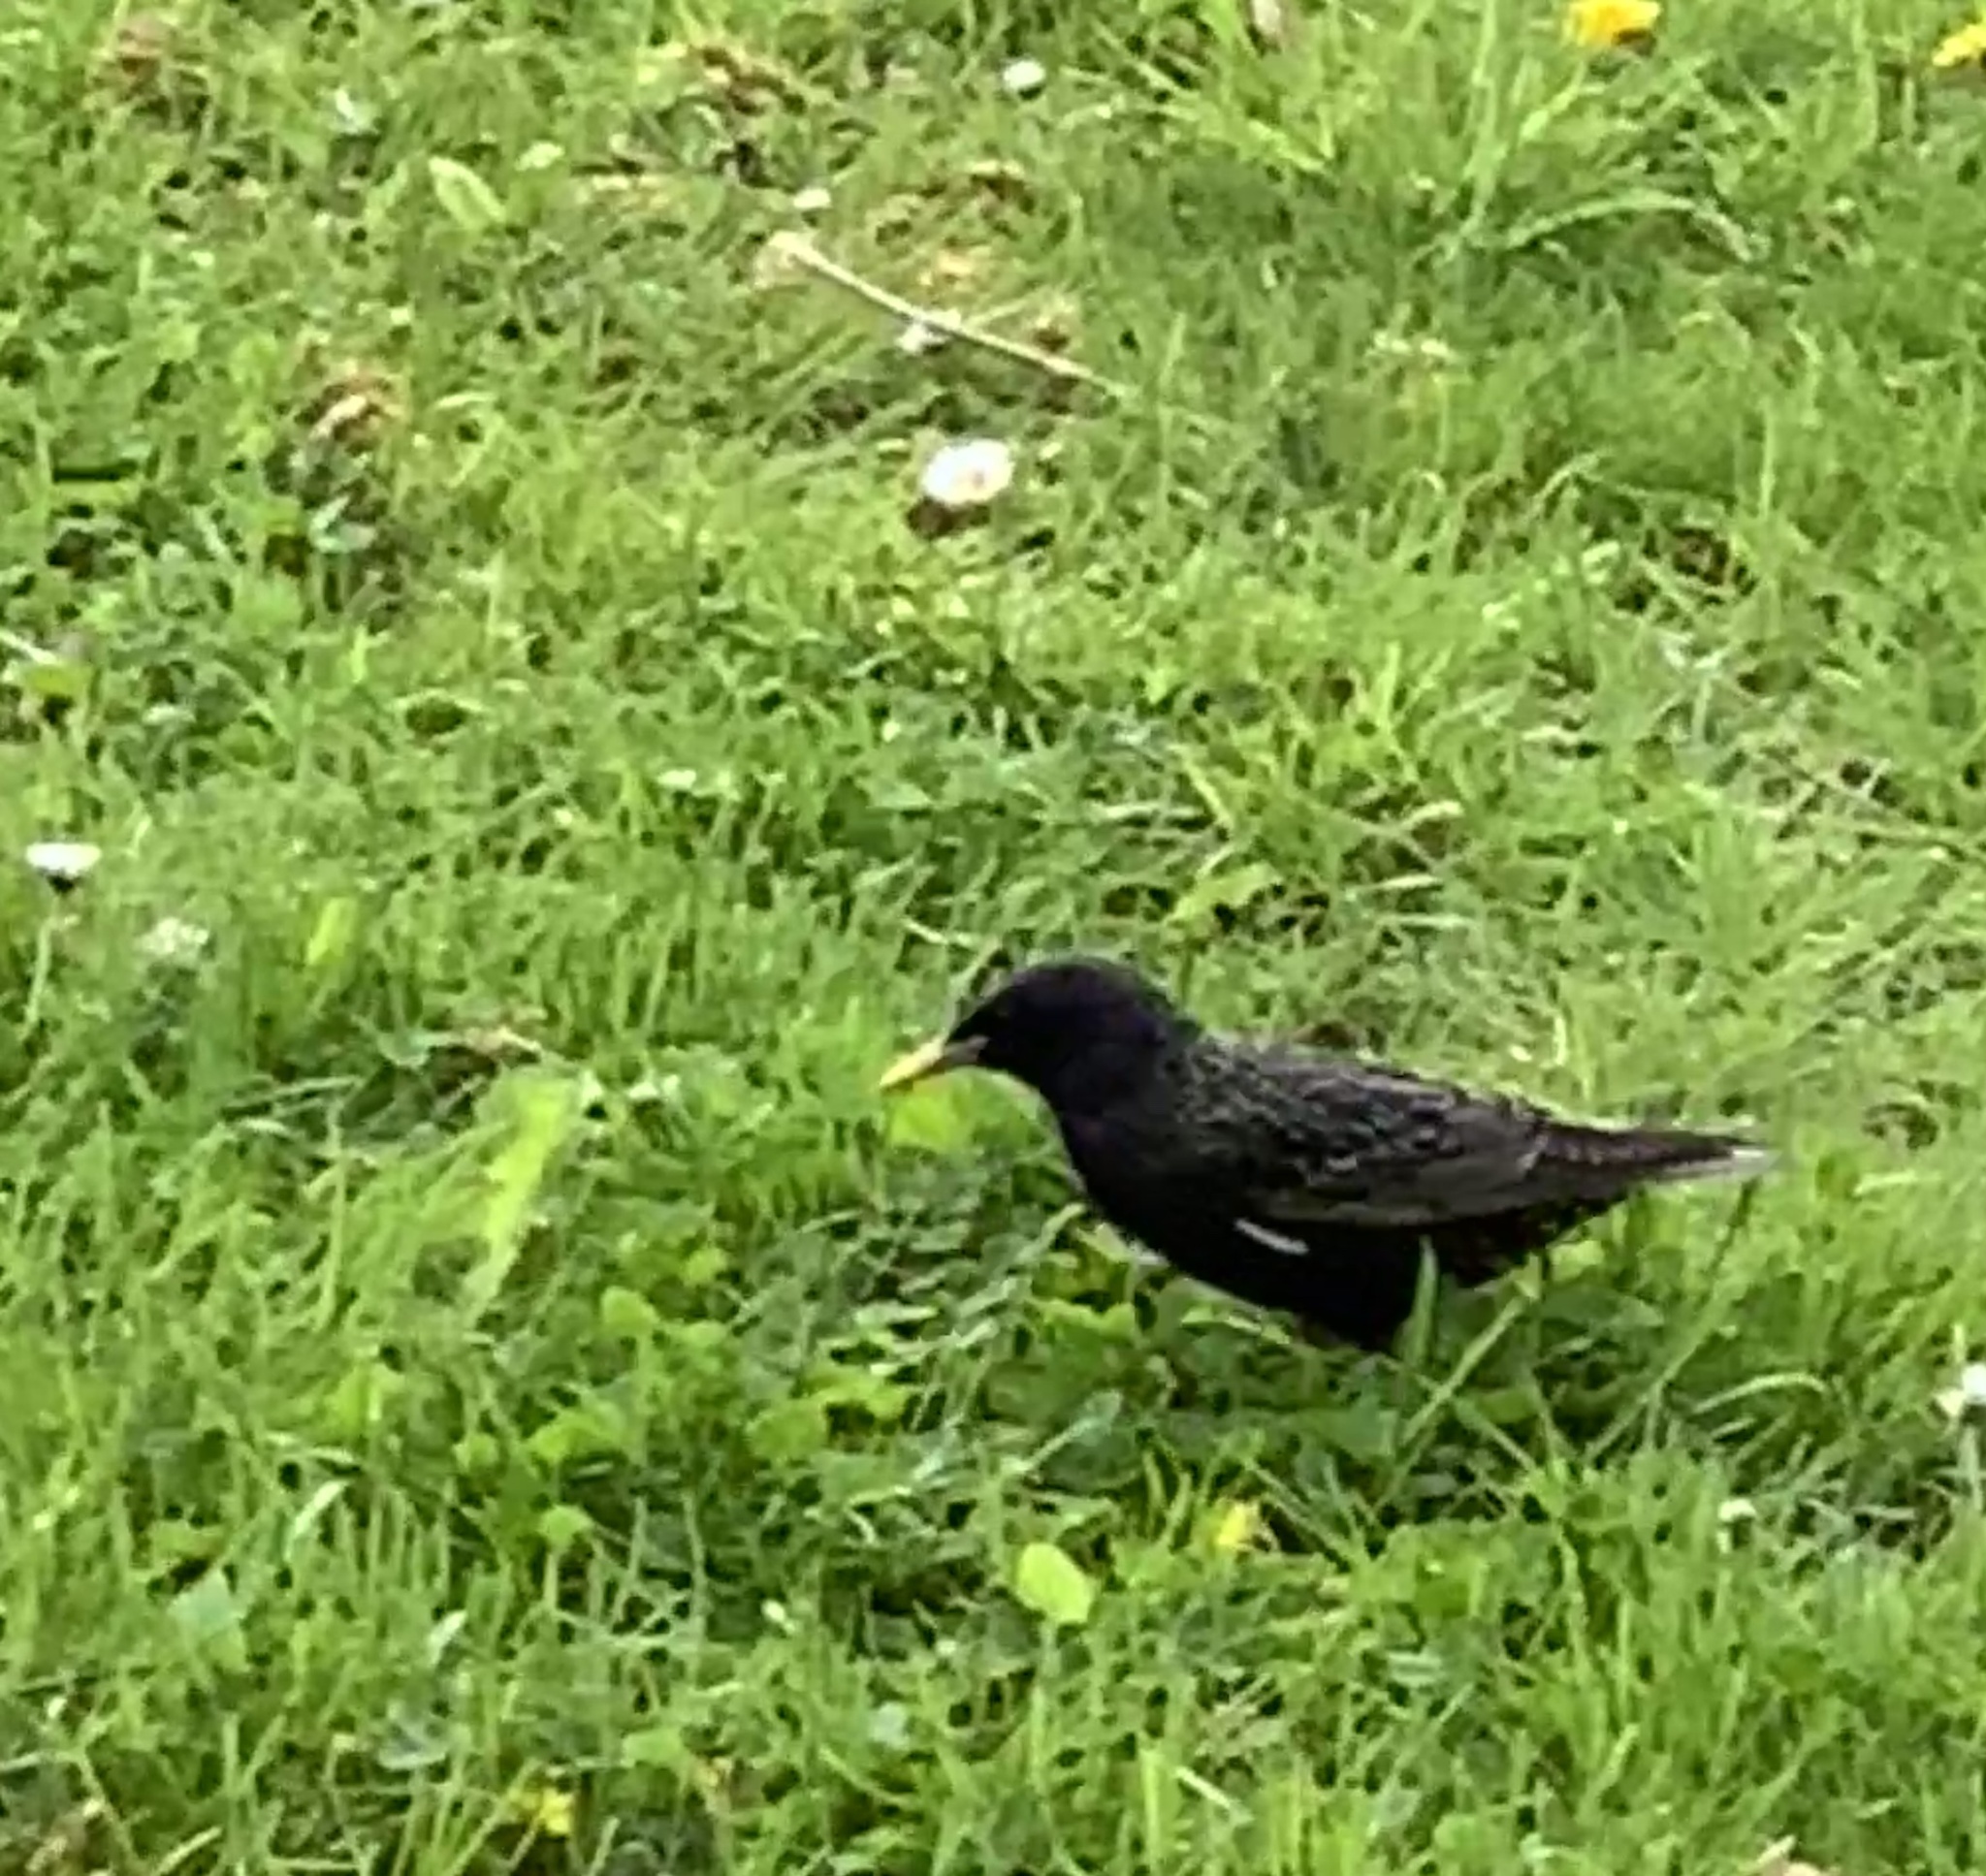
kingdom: Animalia
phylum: Chordata
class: Aves
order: Passeriformes
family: Sturnidae
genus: Sturnus
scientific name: Sturnus vulgaris
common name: Common starling
